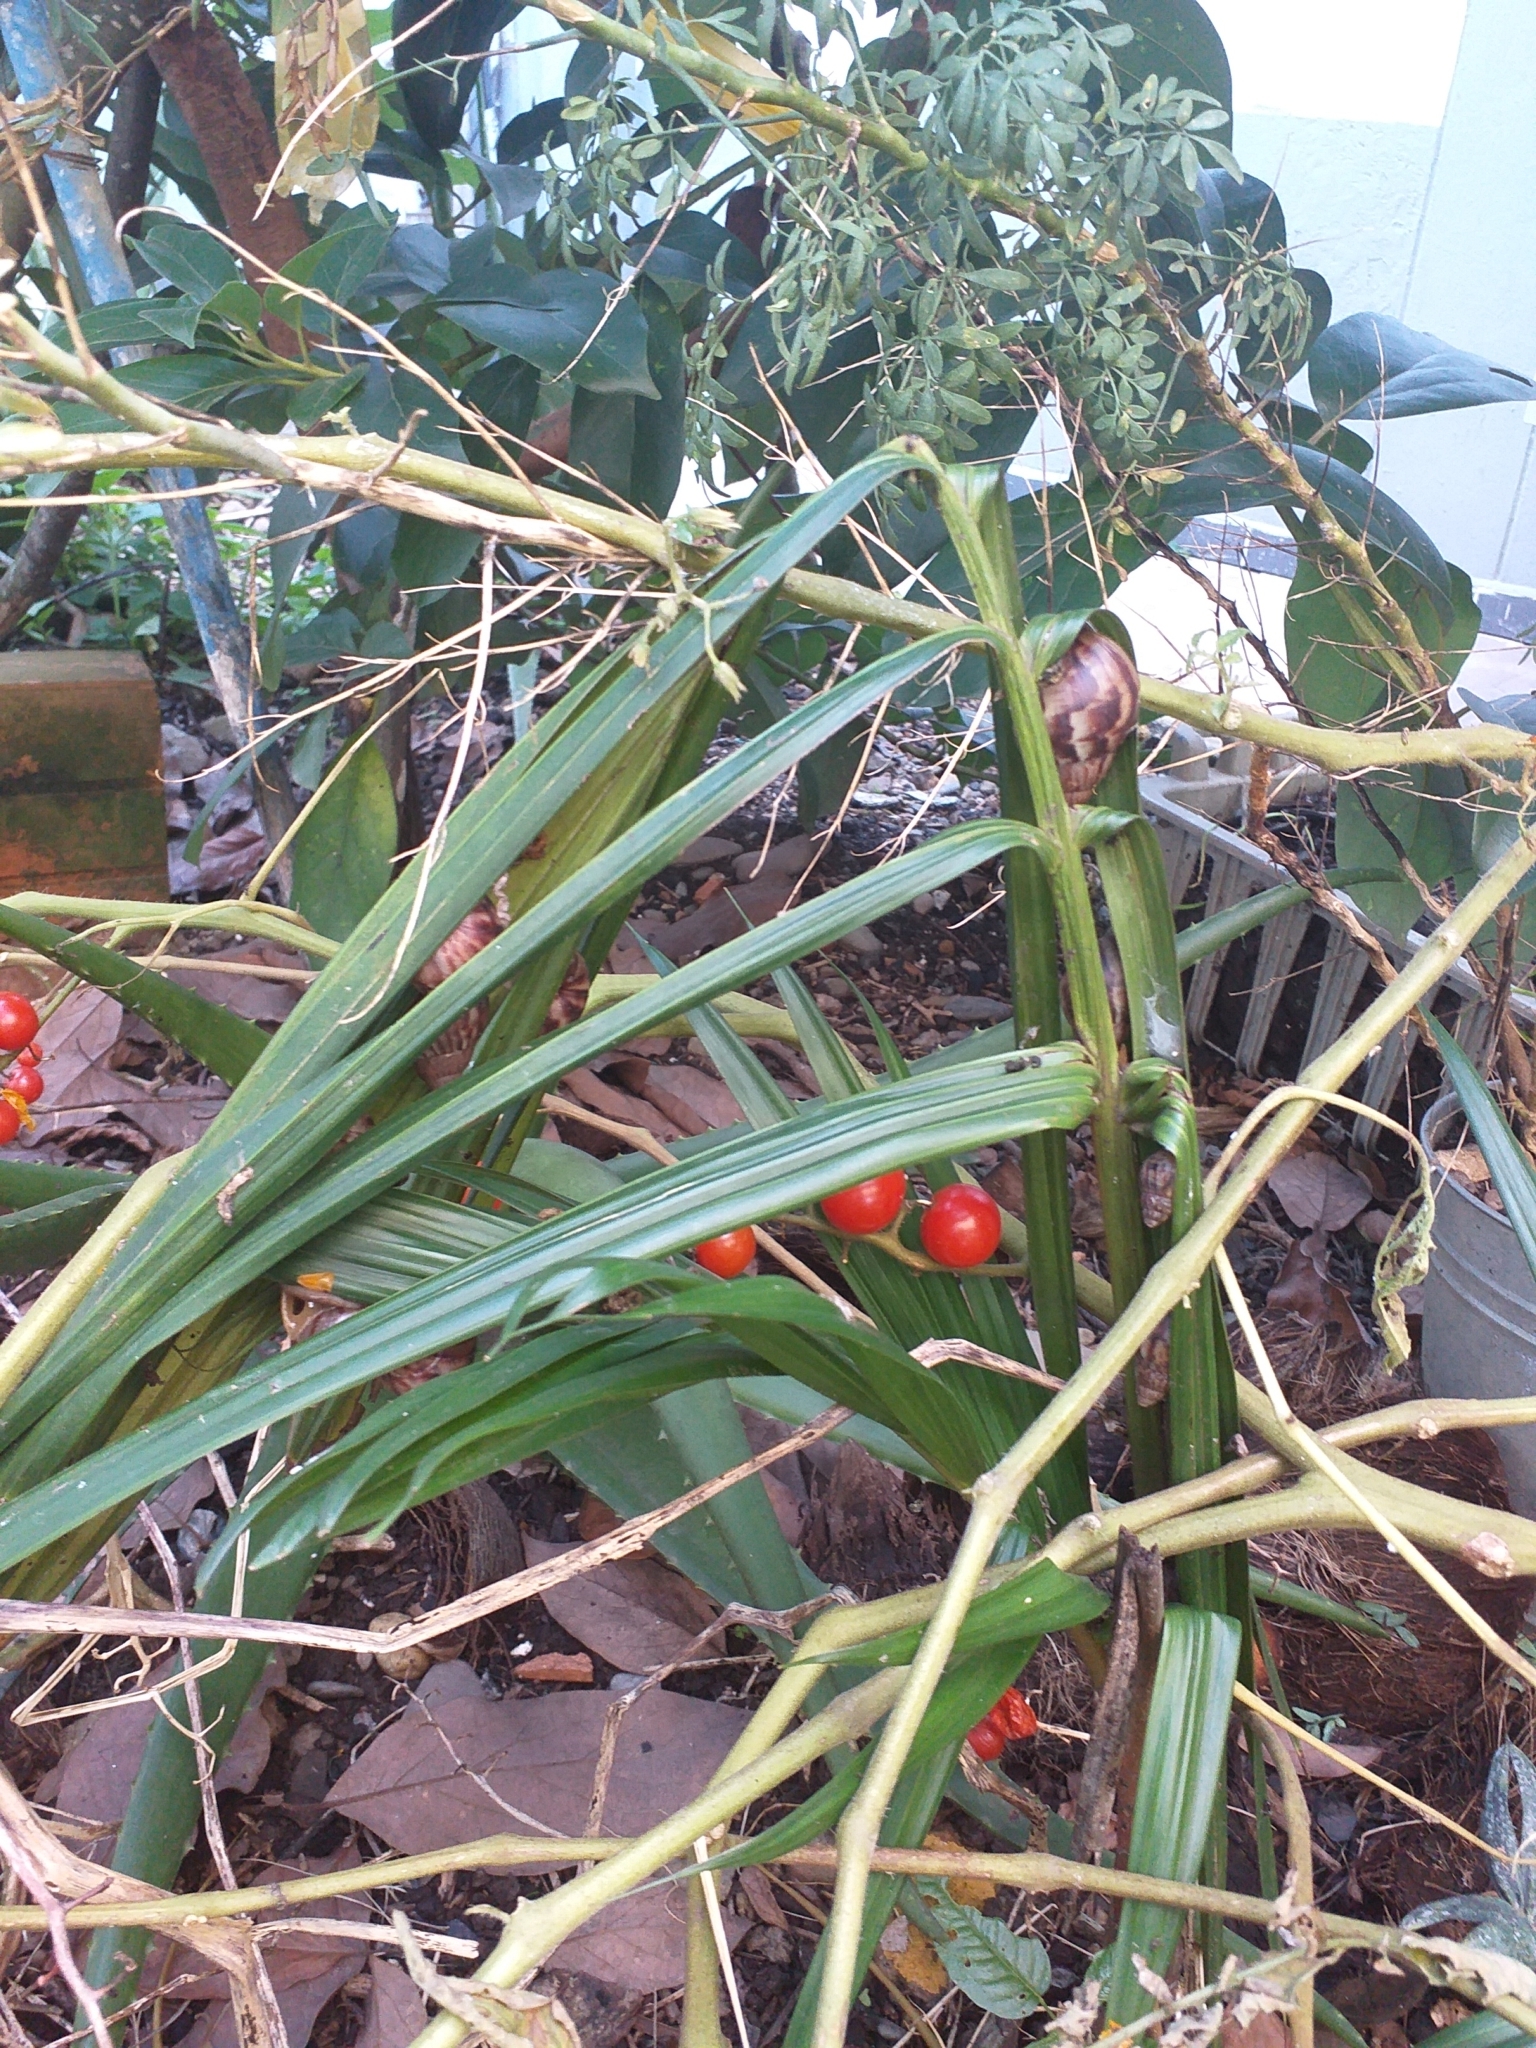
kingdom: Animalia
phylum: Mollusca
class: Gastropoda
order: Stylommatophora
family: Achatinidae
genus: Lissachatina
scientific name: Lissachatina fulica
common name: Giant african snail
